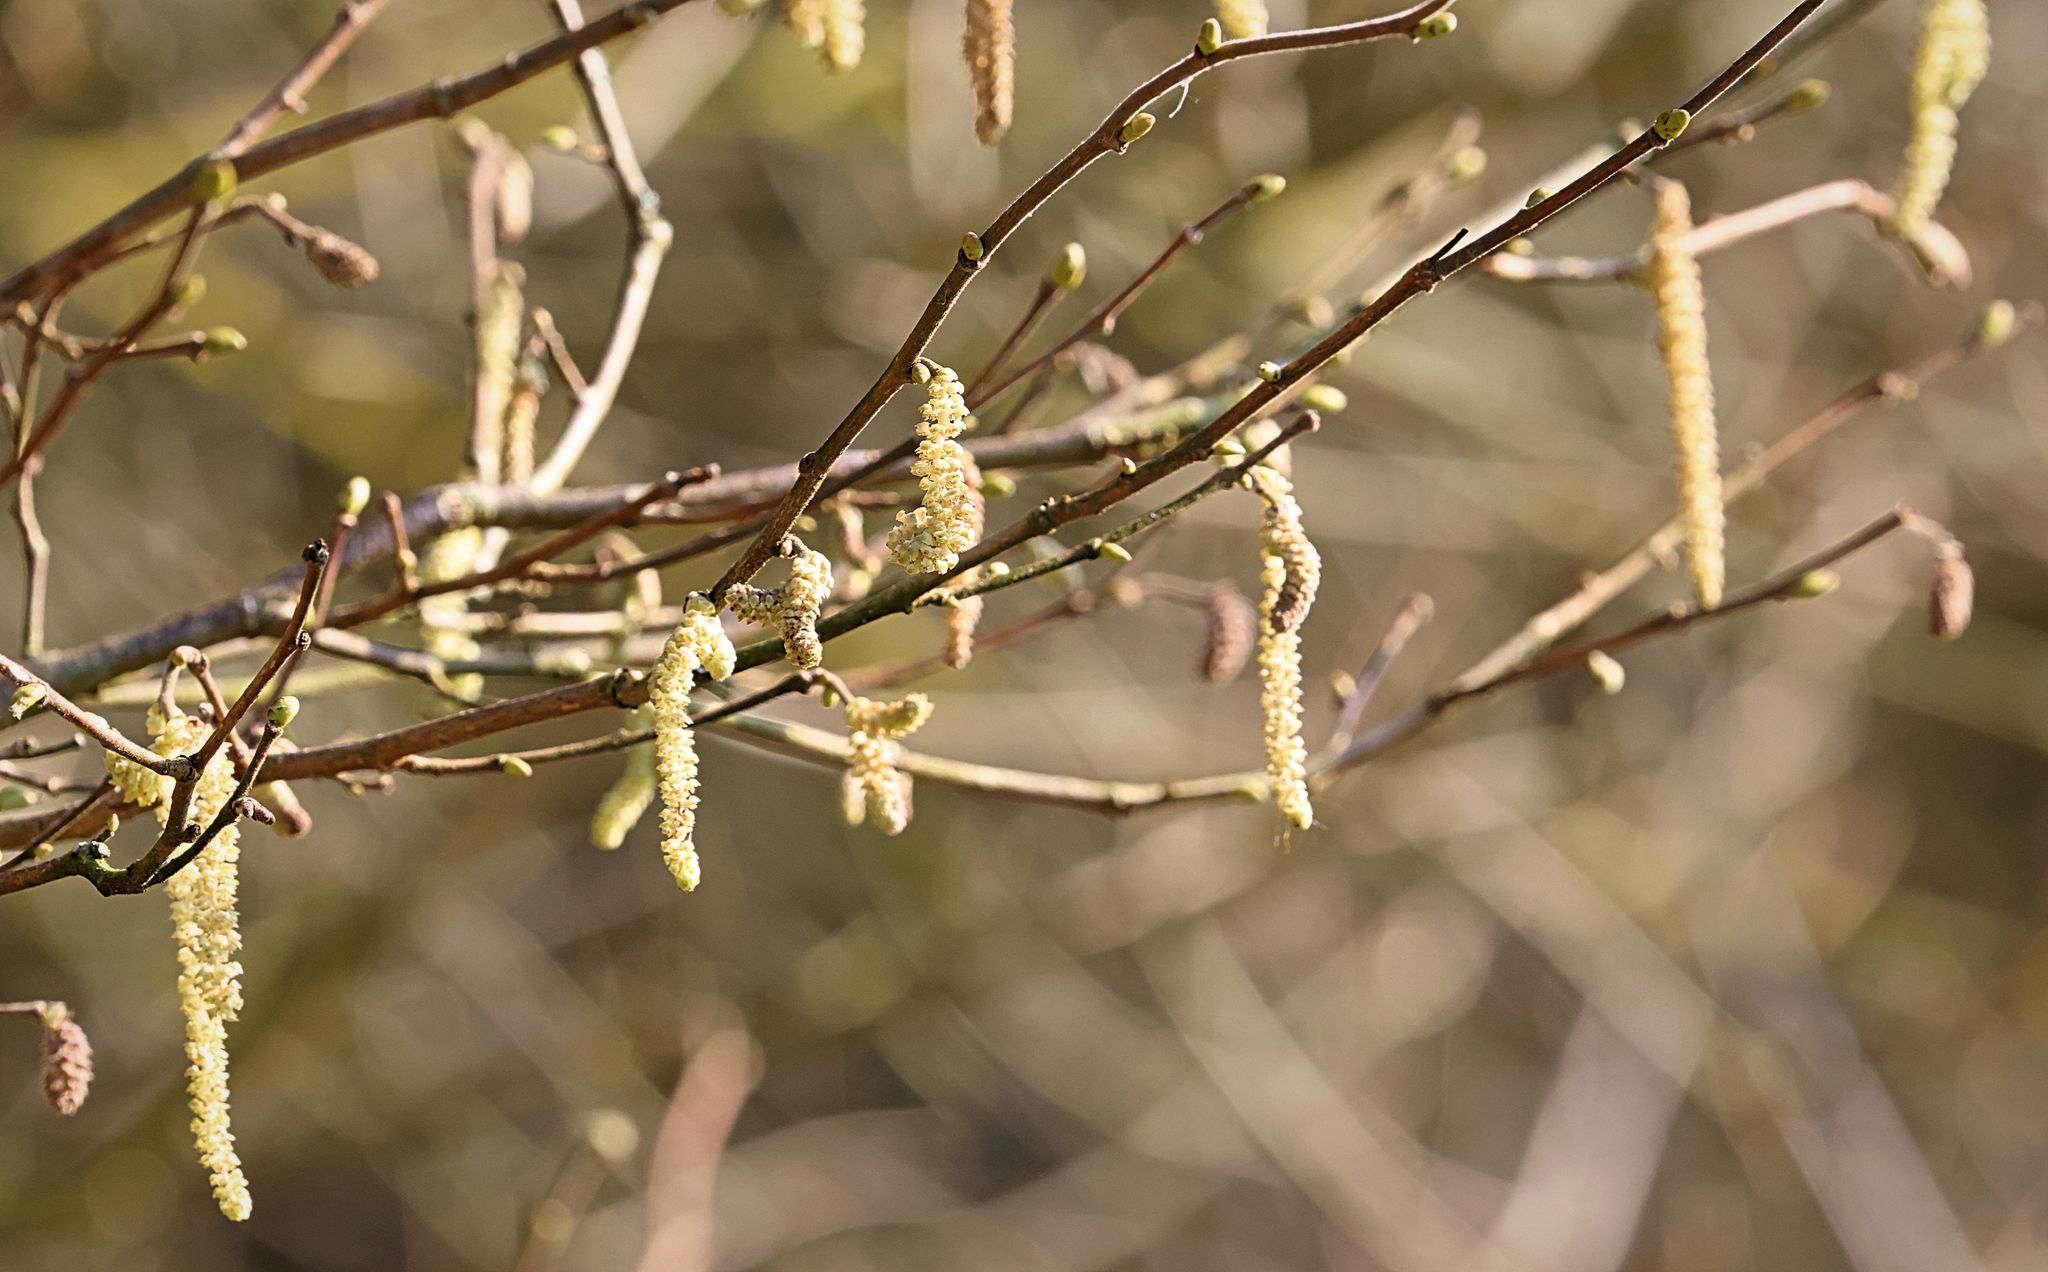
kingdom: Plantae
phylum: Tracheophyta
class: Magnoliopsida
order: Fagales
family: Betulaceae
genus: Corylus
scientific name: Corylus avellana
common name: European hazel
